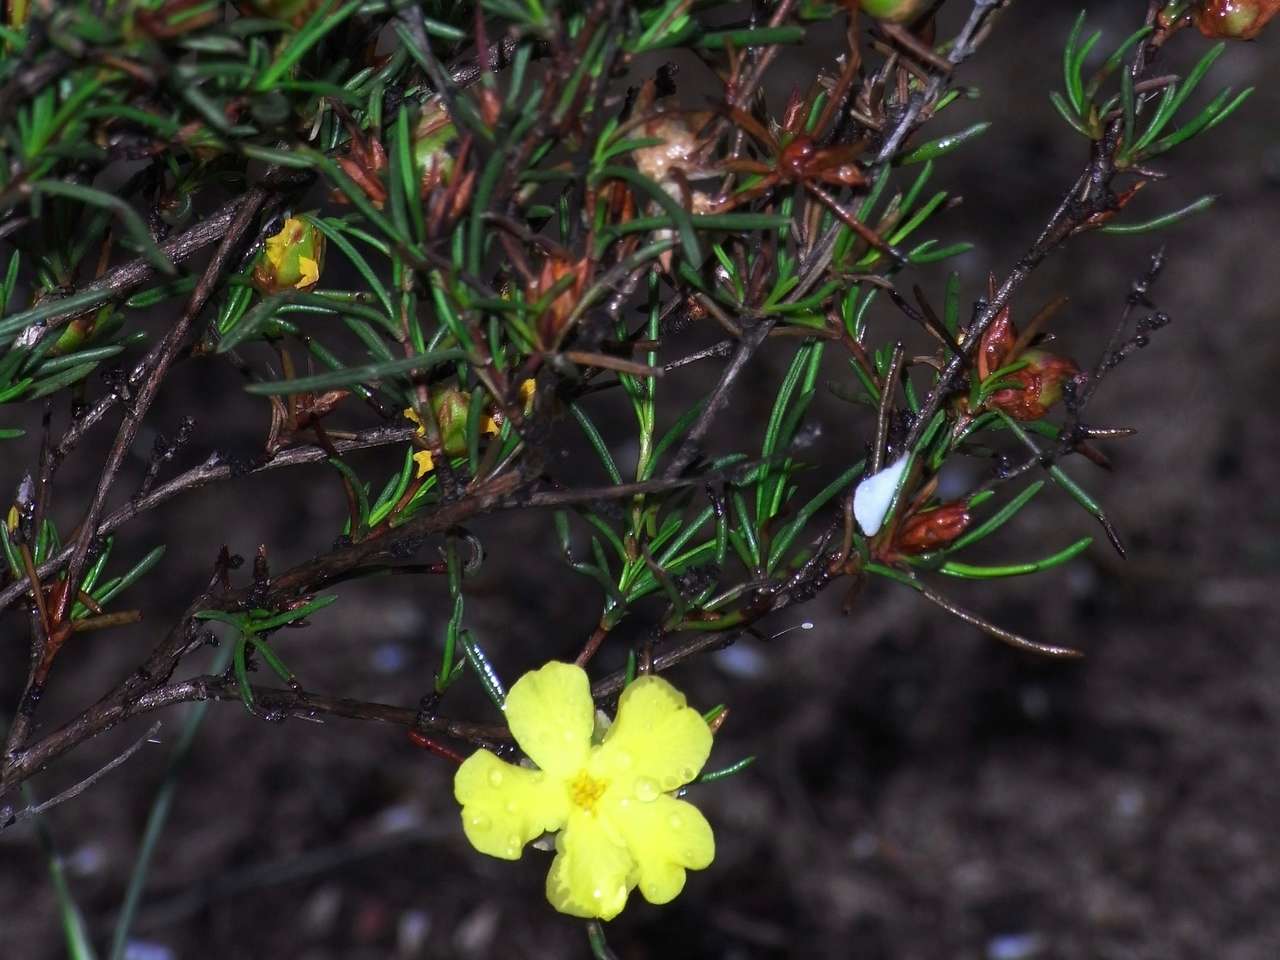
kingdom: Plantae
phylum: Tracheophyta
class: Magnoliopsida
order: Dilleniales
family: Dilleniaceae
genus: Hibbertia
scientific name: Hibbertia virgata
